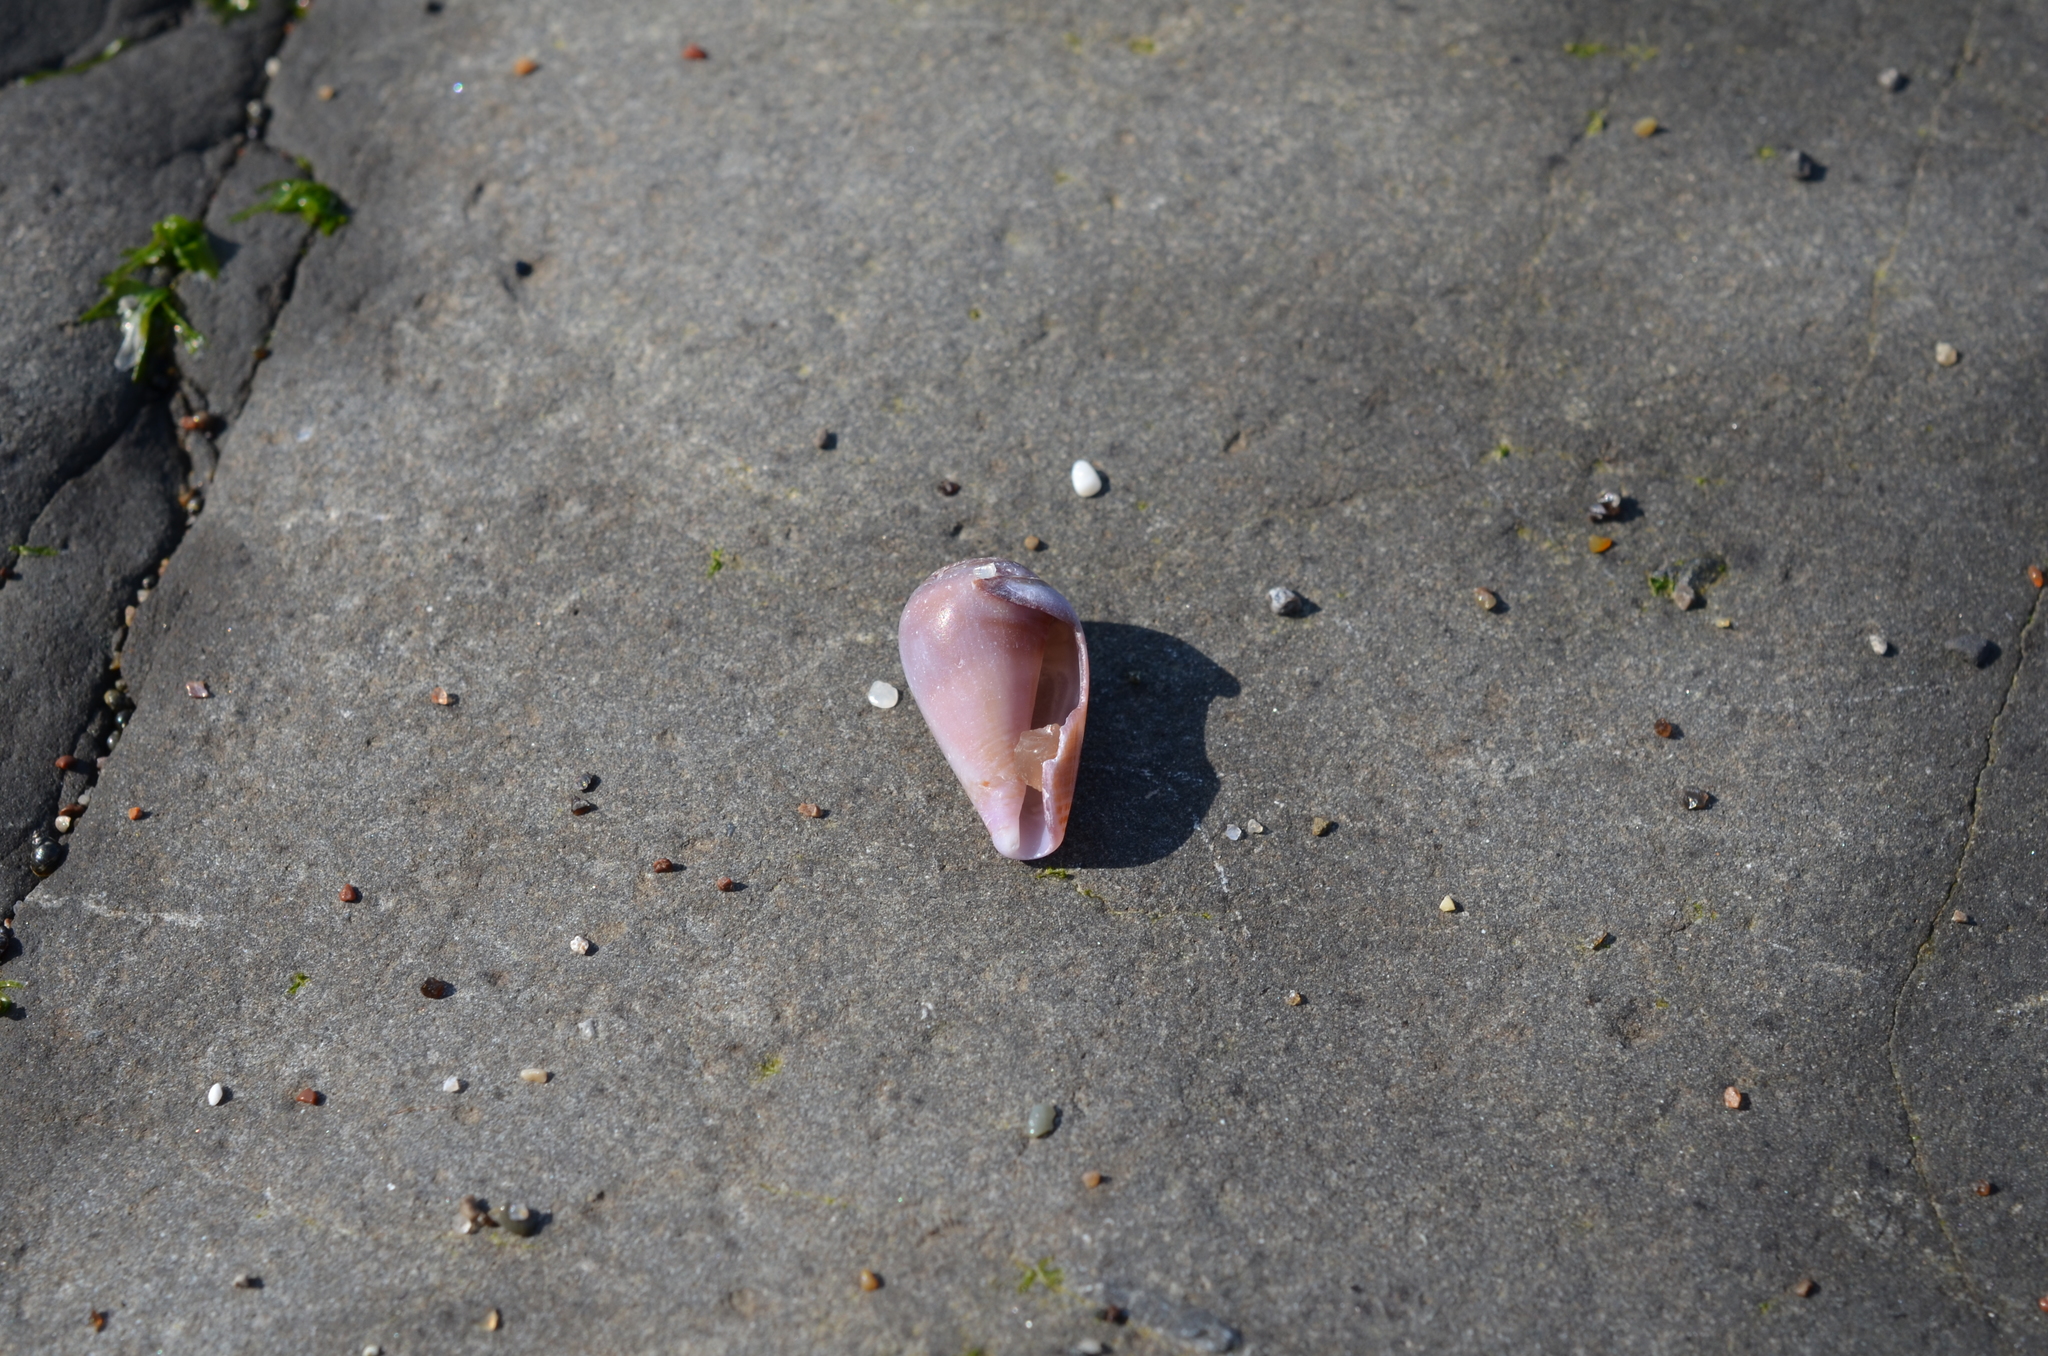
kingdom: Animalia
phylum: Mollusca
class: Gastropoda
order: Neogastropoda
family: Conidae
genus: Californiconus
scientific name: Californiconus californicus
